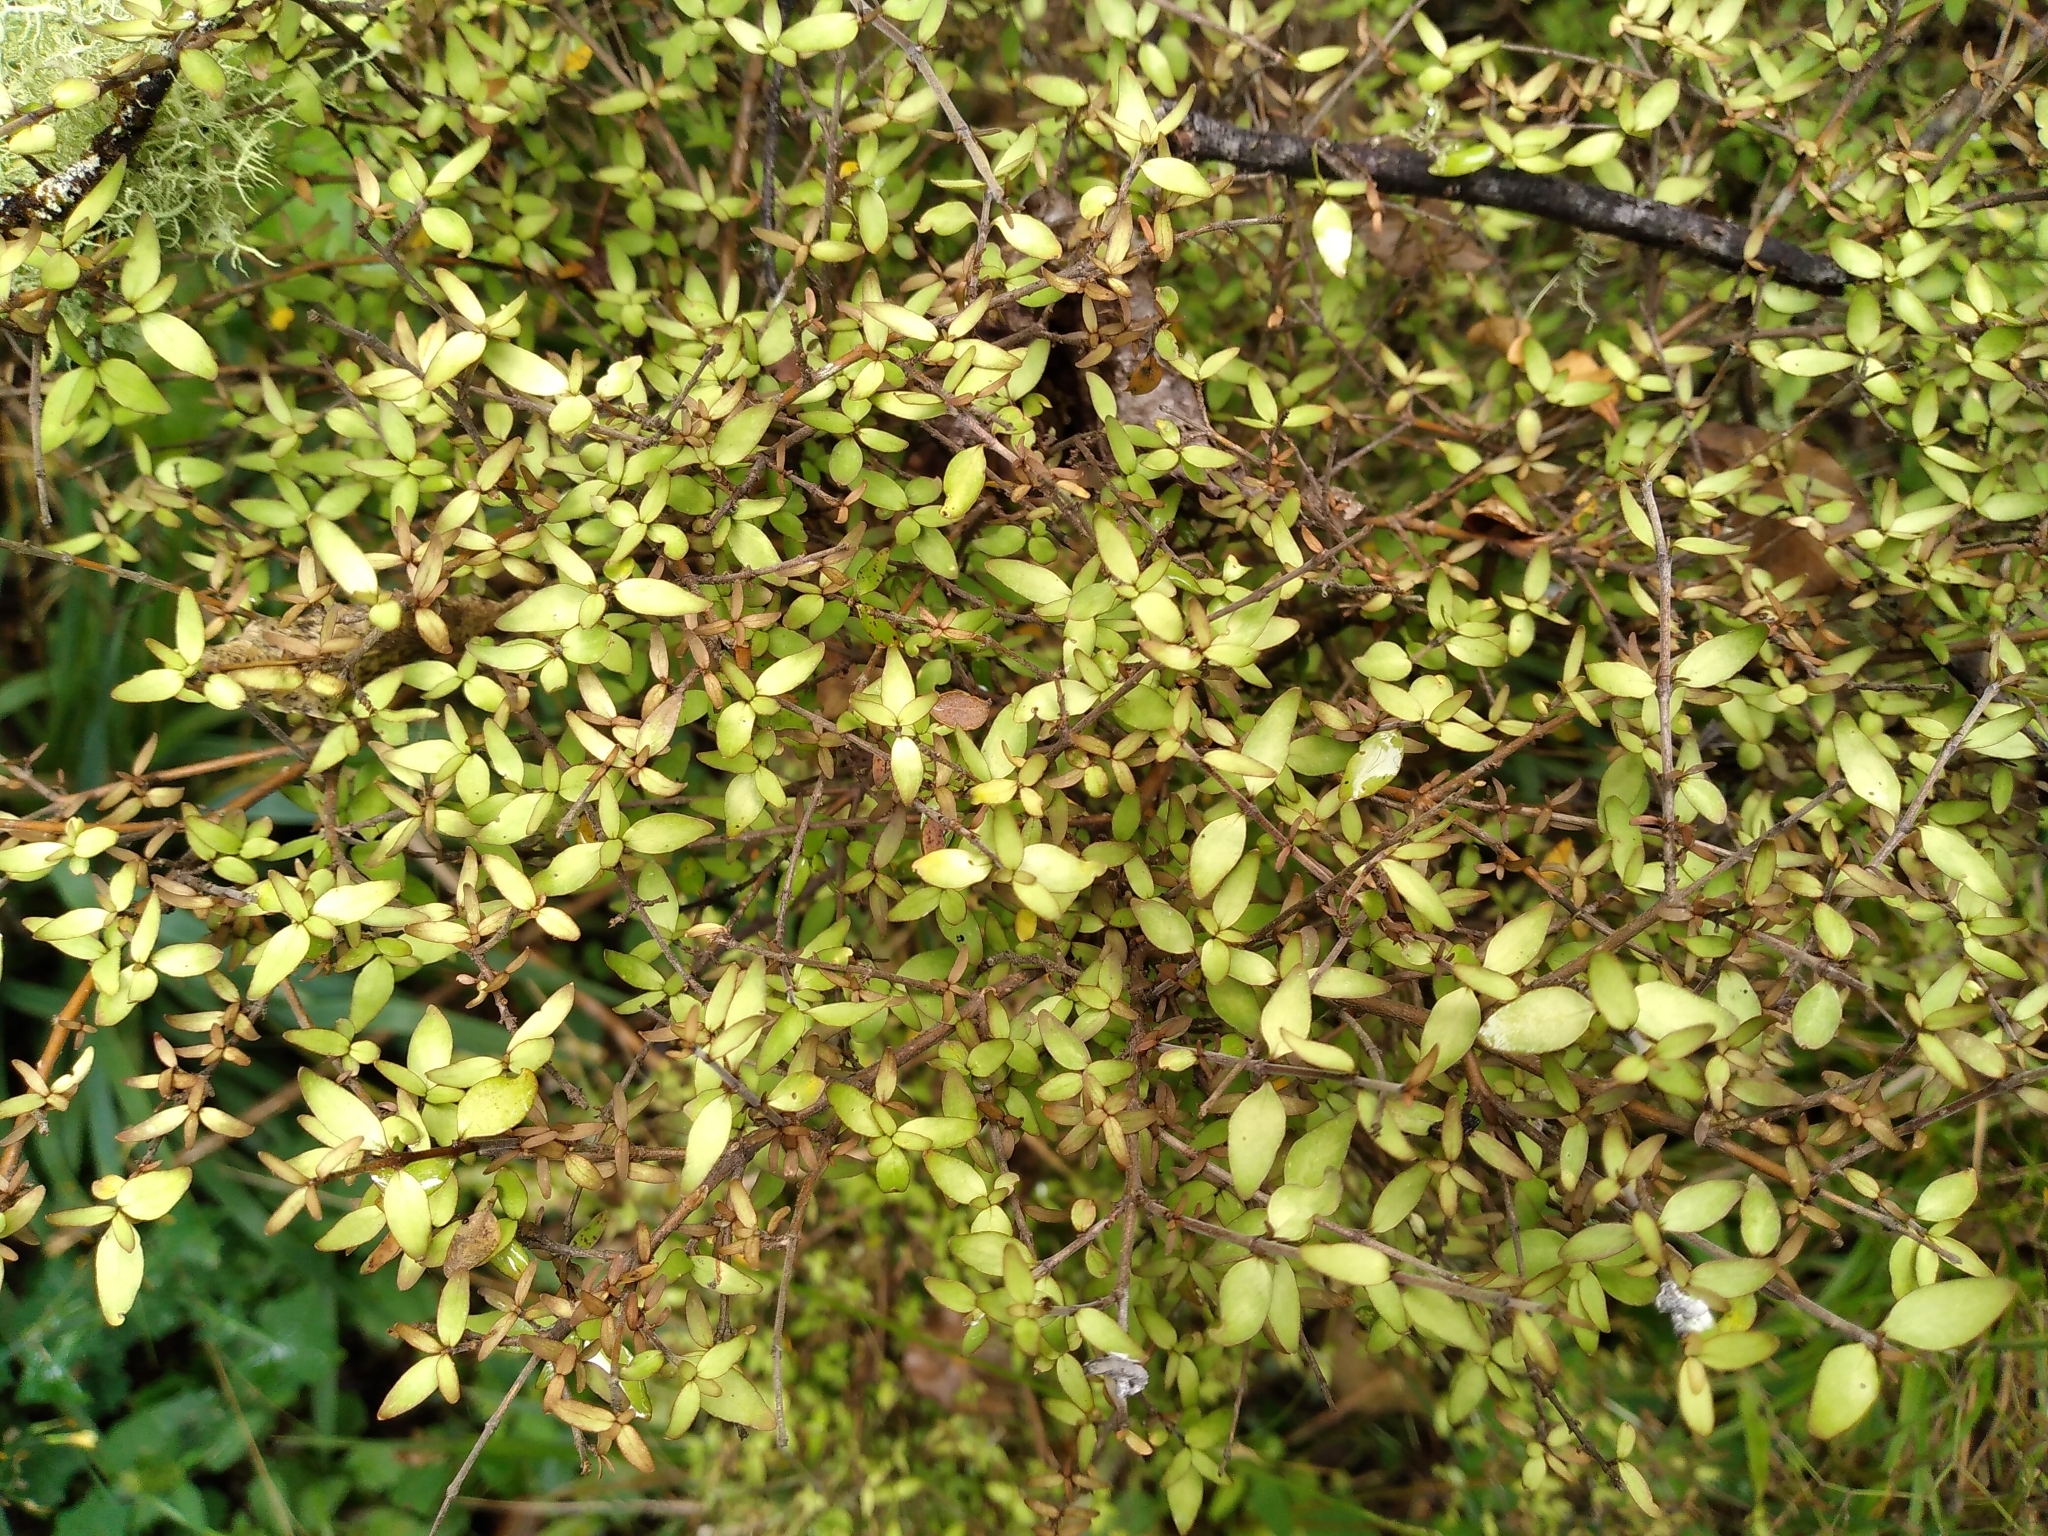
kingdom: Plantae
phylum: Tracheophyta
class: Magnoliopsida
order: Gentianales
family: Rubiaceae
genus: Coprosma
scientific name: Coprosma rhamnoides
